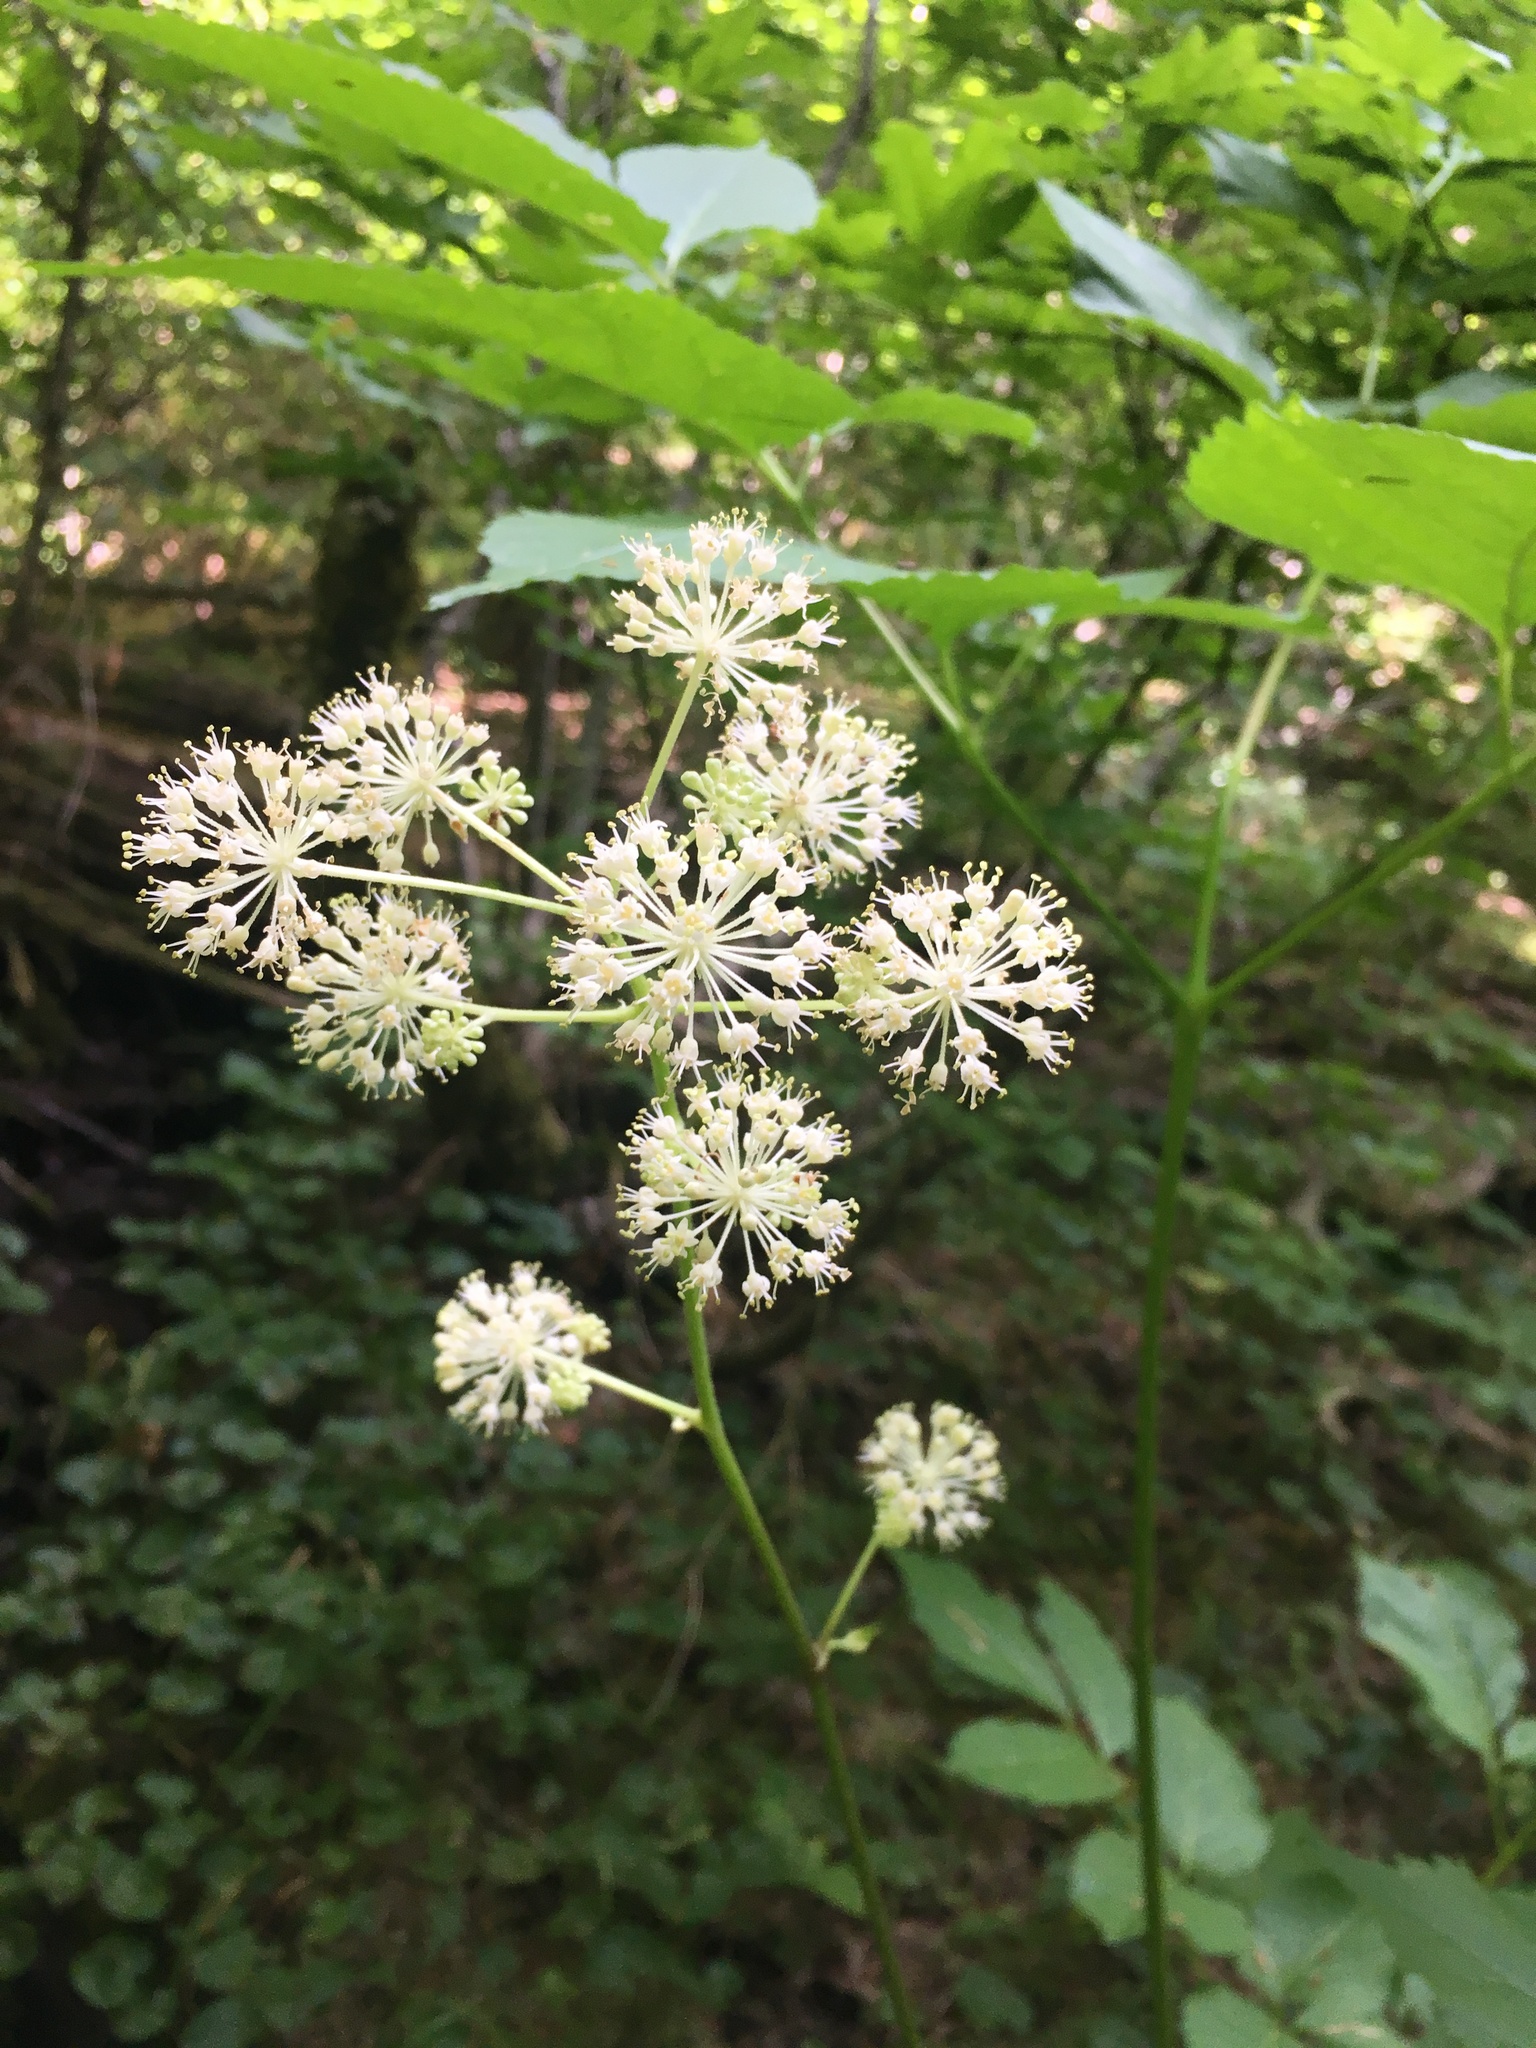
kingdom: Plantae
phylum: Tracheophyta
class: Magnoliopsida
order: Apiales
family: Araliaceae
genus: Aralia
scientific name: Aralia californica
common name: California-ginseng
